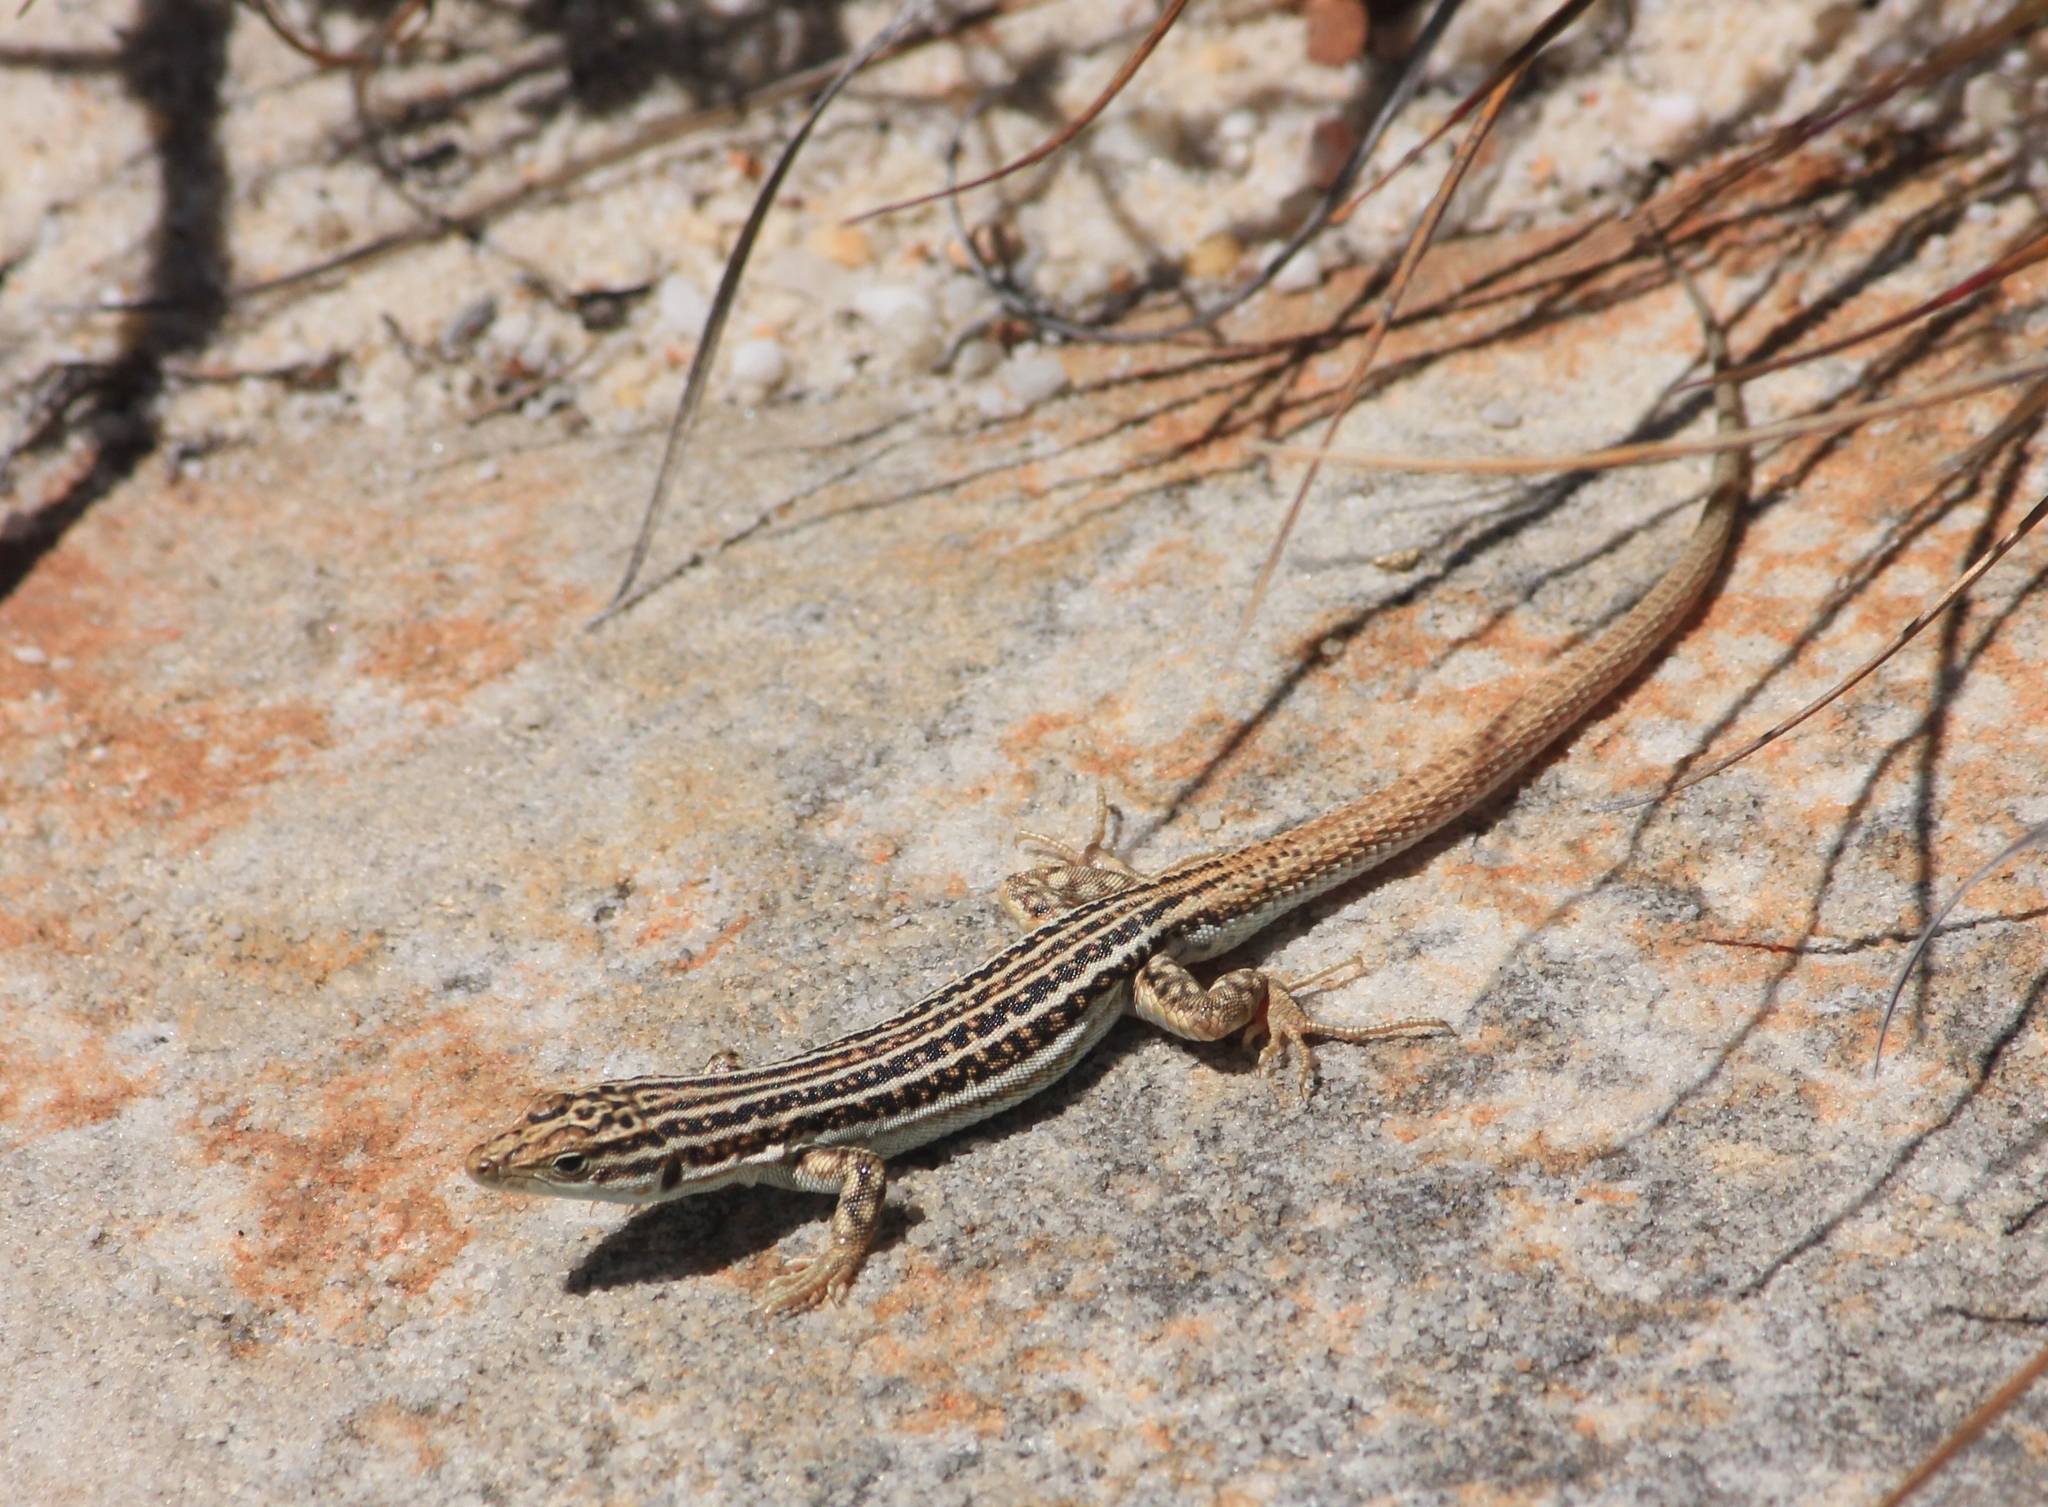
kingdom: Animalia
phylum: Chordata
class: Squamata
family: Lacertidae
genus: Pedioplanis
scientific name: Pedioplanis burchelli
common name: Burchell's sand lizard
